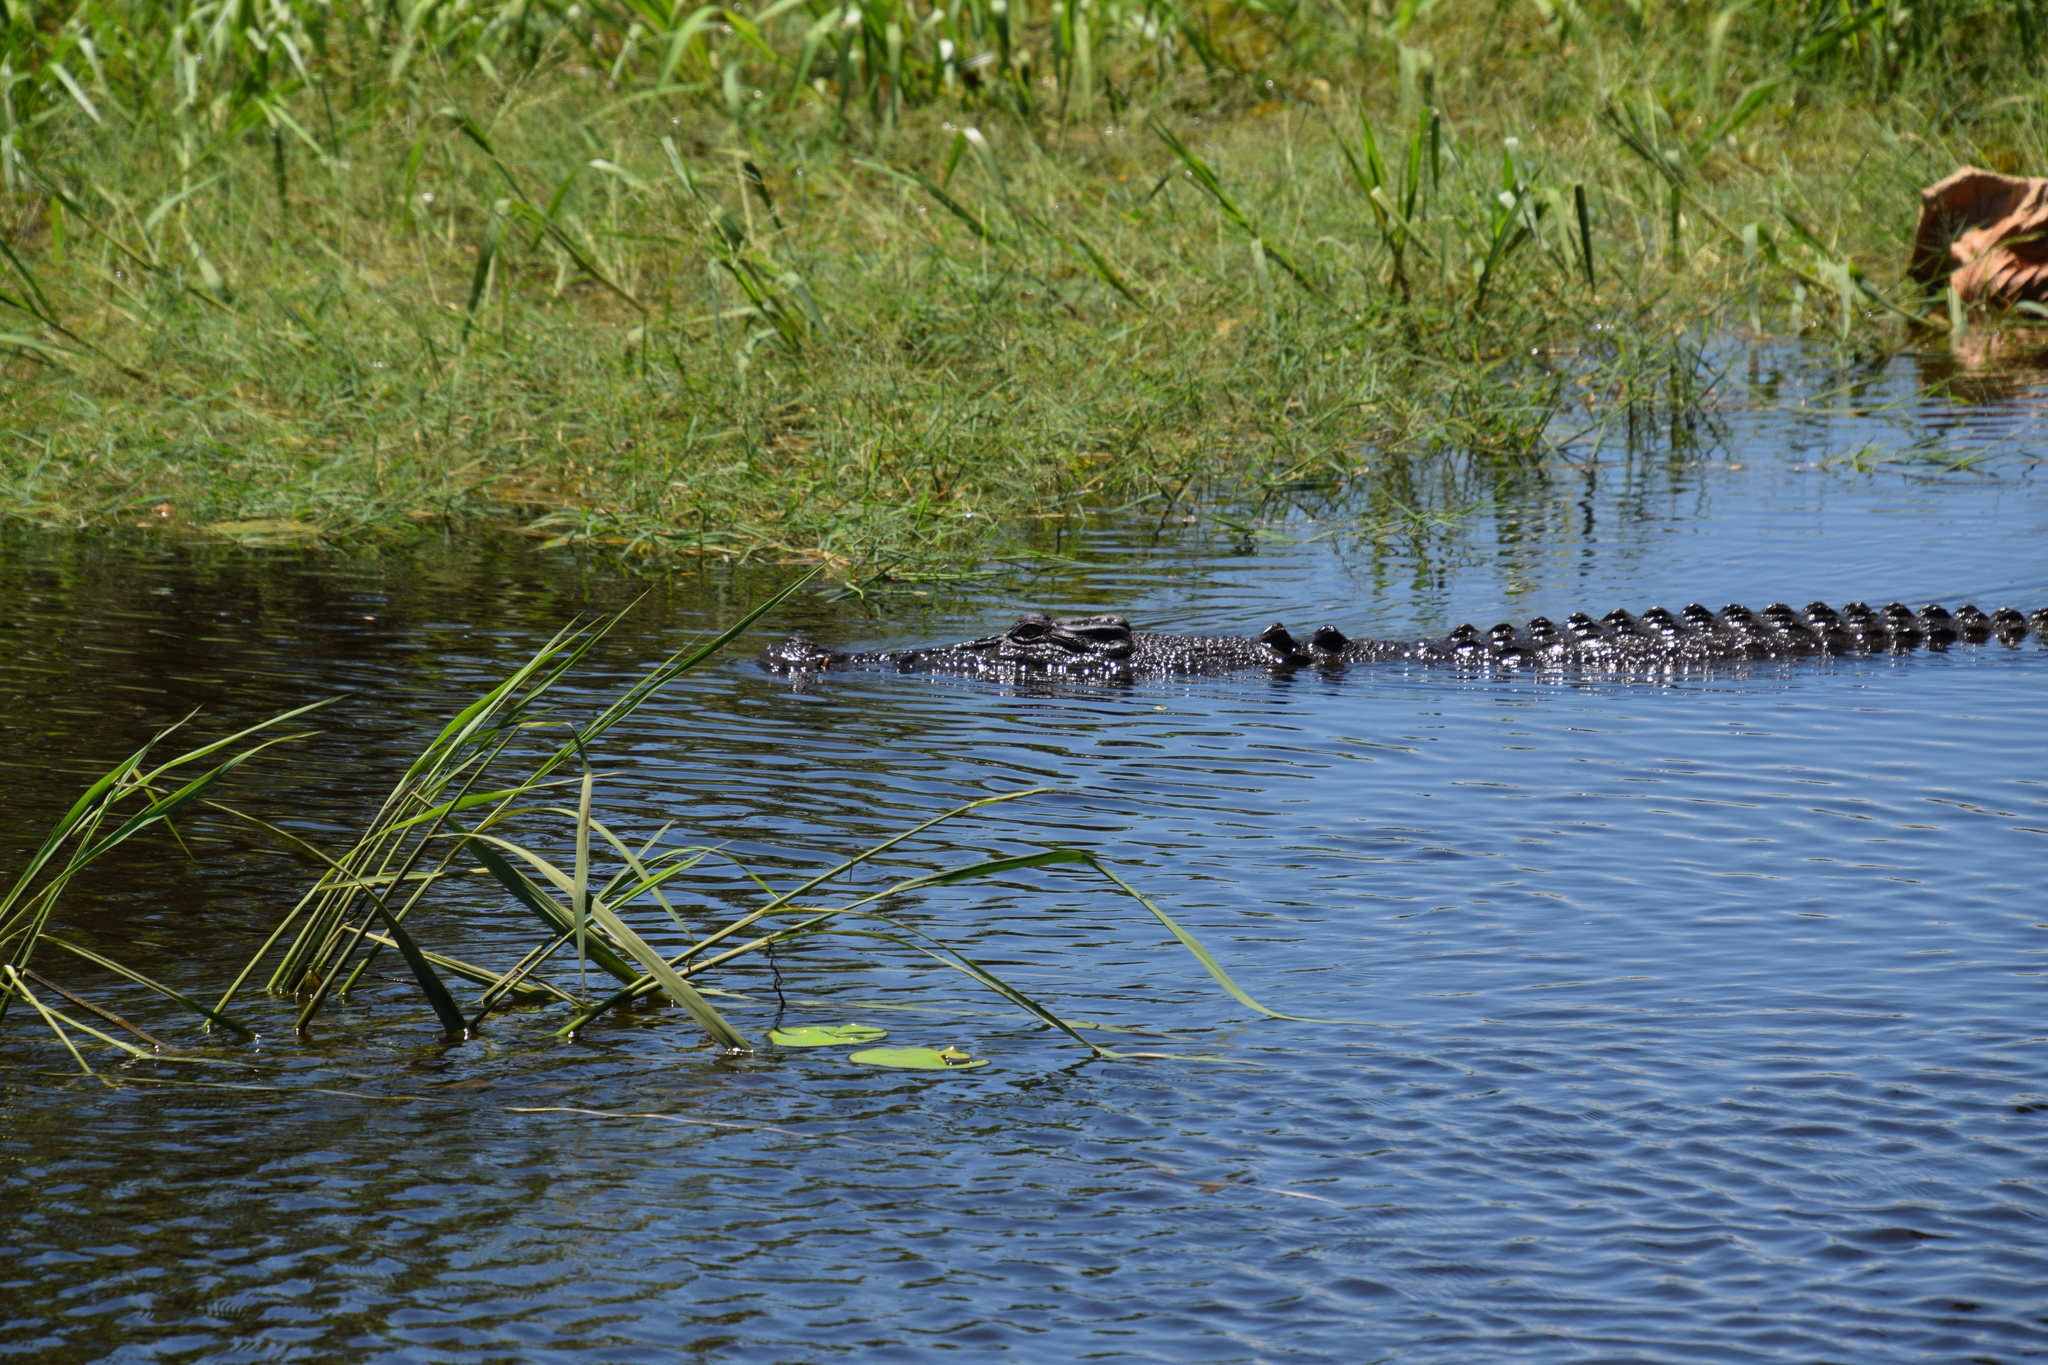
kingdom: Animalia
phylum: Chordata
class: Crocodylia
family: Crocodylidae
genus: Crocodylus
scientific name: Crocodylus porosus
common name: Saltwater crocodile
